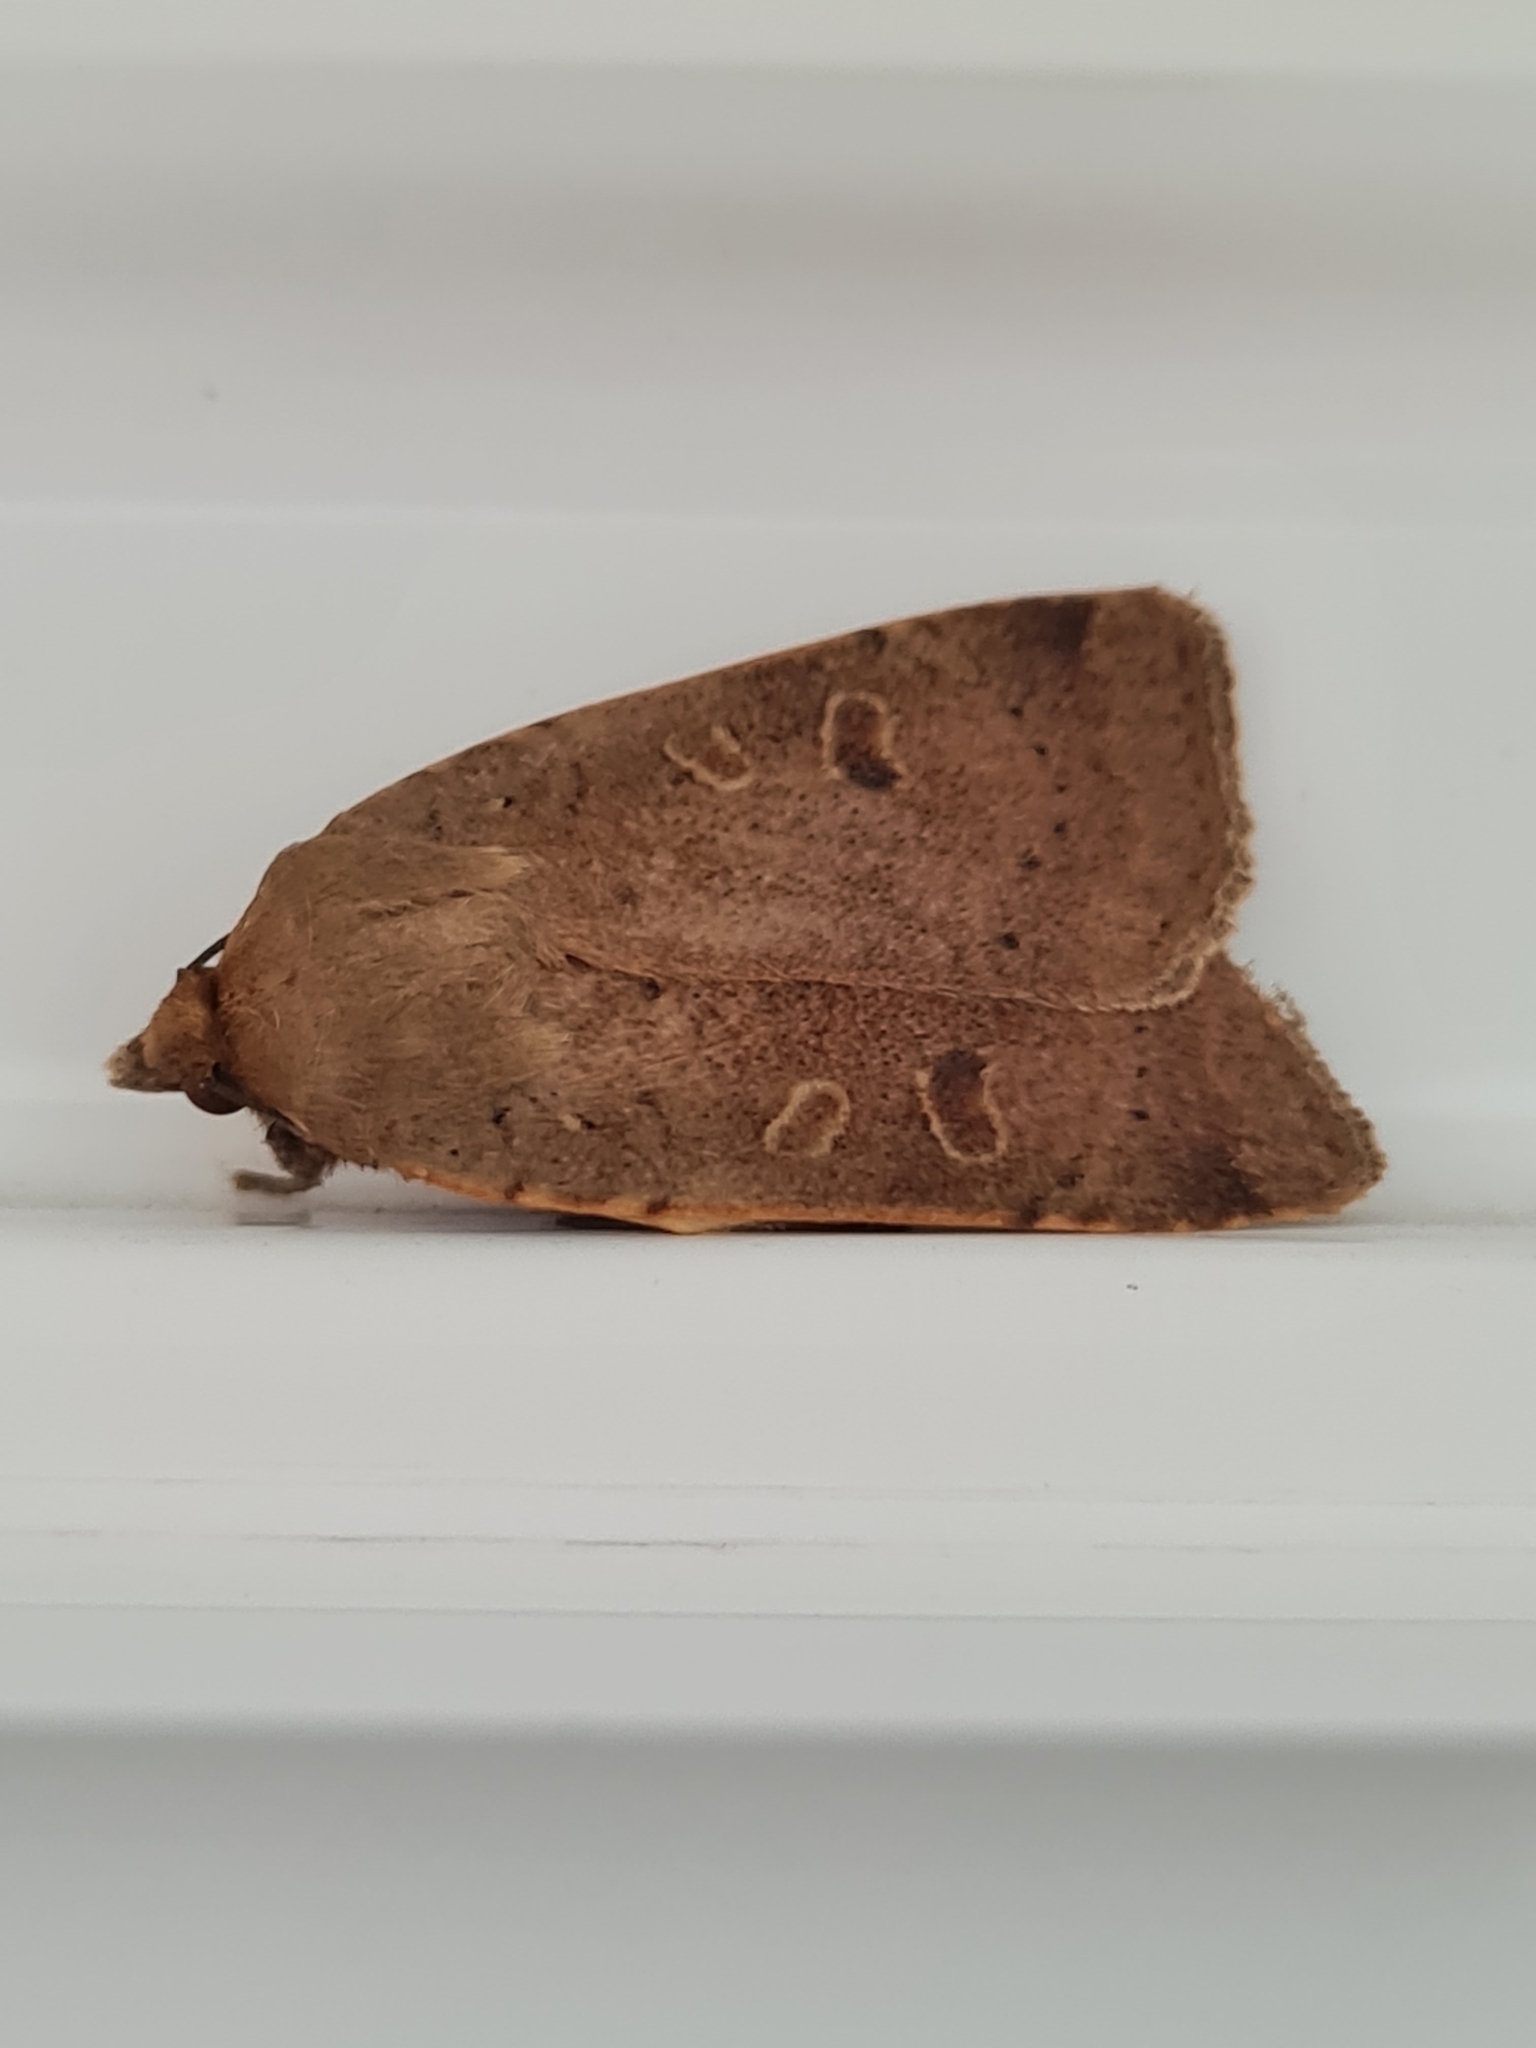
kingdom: Animalia
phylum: Arthropoda
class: Insecta
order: Lepidoptera
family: Noctuidae
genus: Noctua
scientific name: Noctua comes
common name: Lesser yellow underwing
